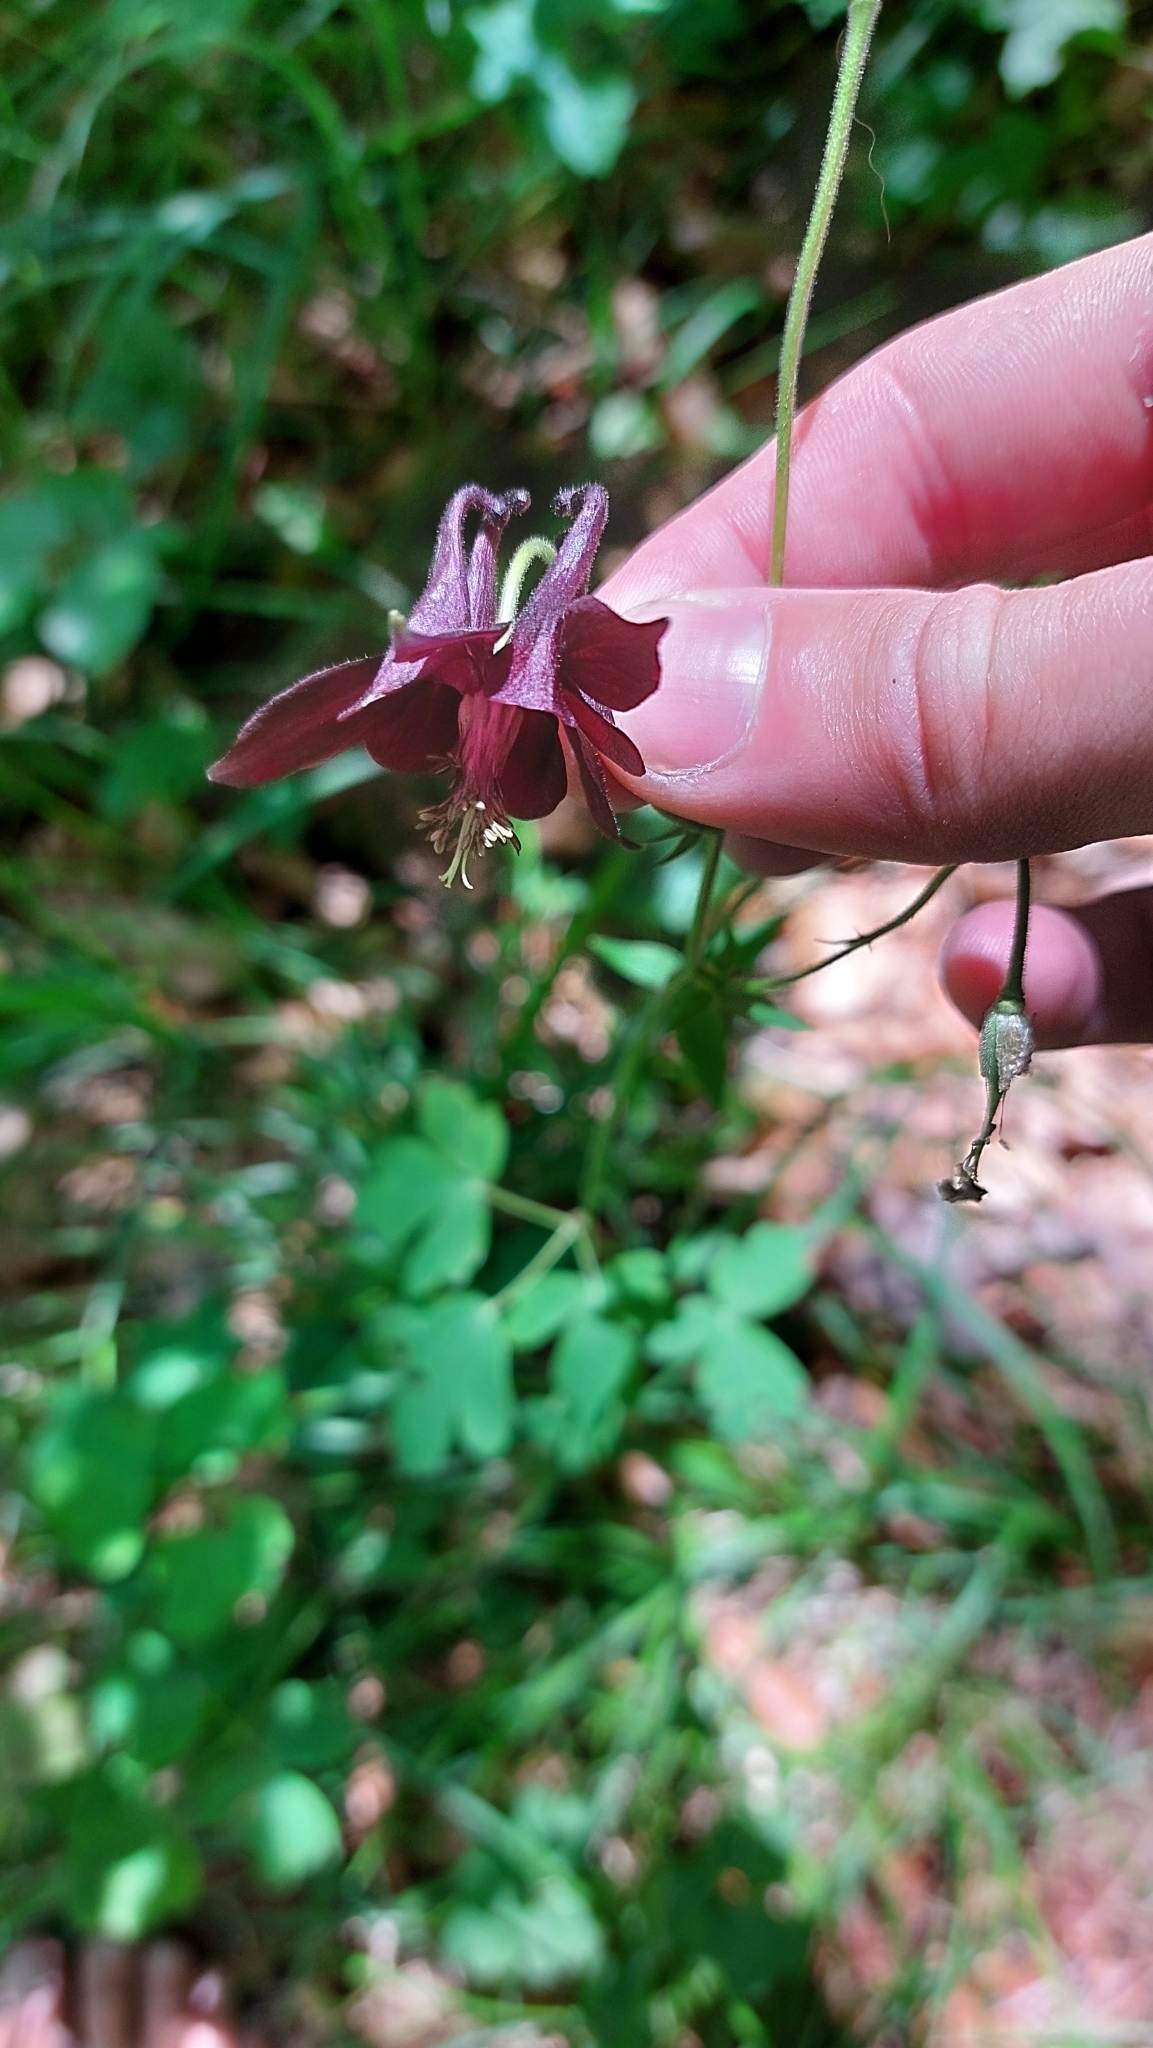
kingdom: Plantae
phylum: Tracheophyta
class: Magnoliopsida
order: Ranunculales
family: Ranunculaceae
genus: Aquilegia
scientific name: Aquilegia atrata
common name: Dark columbine
